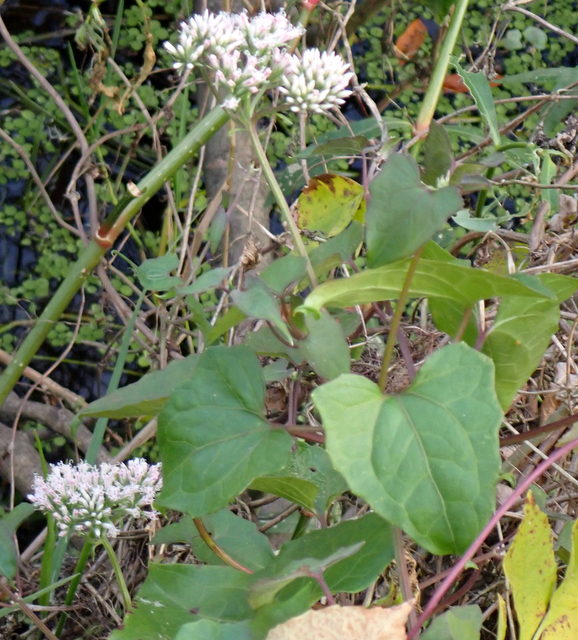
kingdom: Plantae
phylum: Tracheophyta
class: Magnoliopsida
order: Asterales
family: Asteraceae
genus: Mikania
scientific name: Mikania scandens
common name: Climbing hempvine
